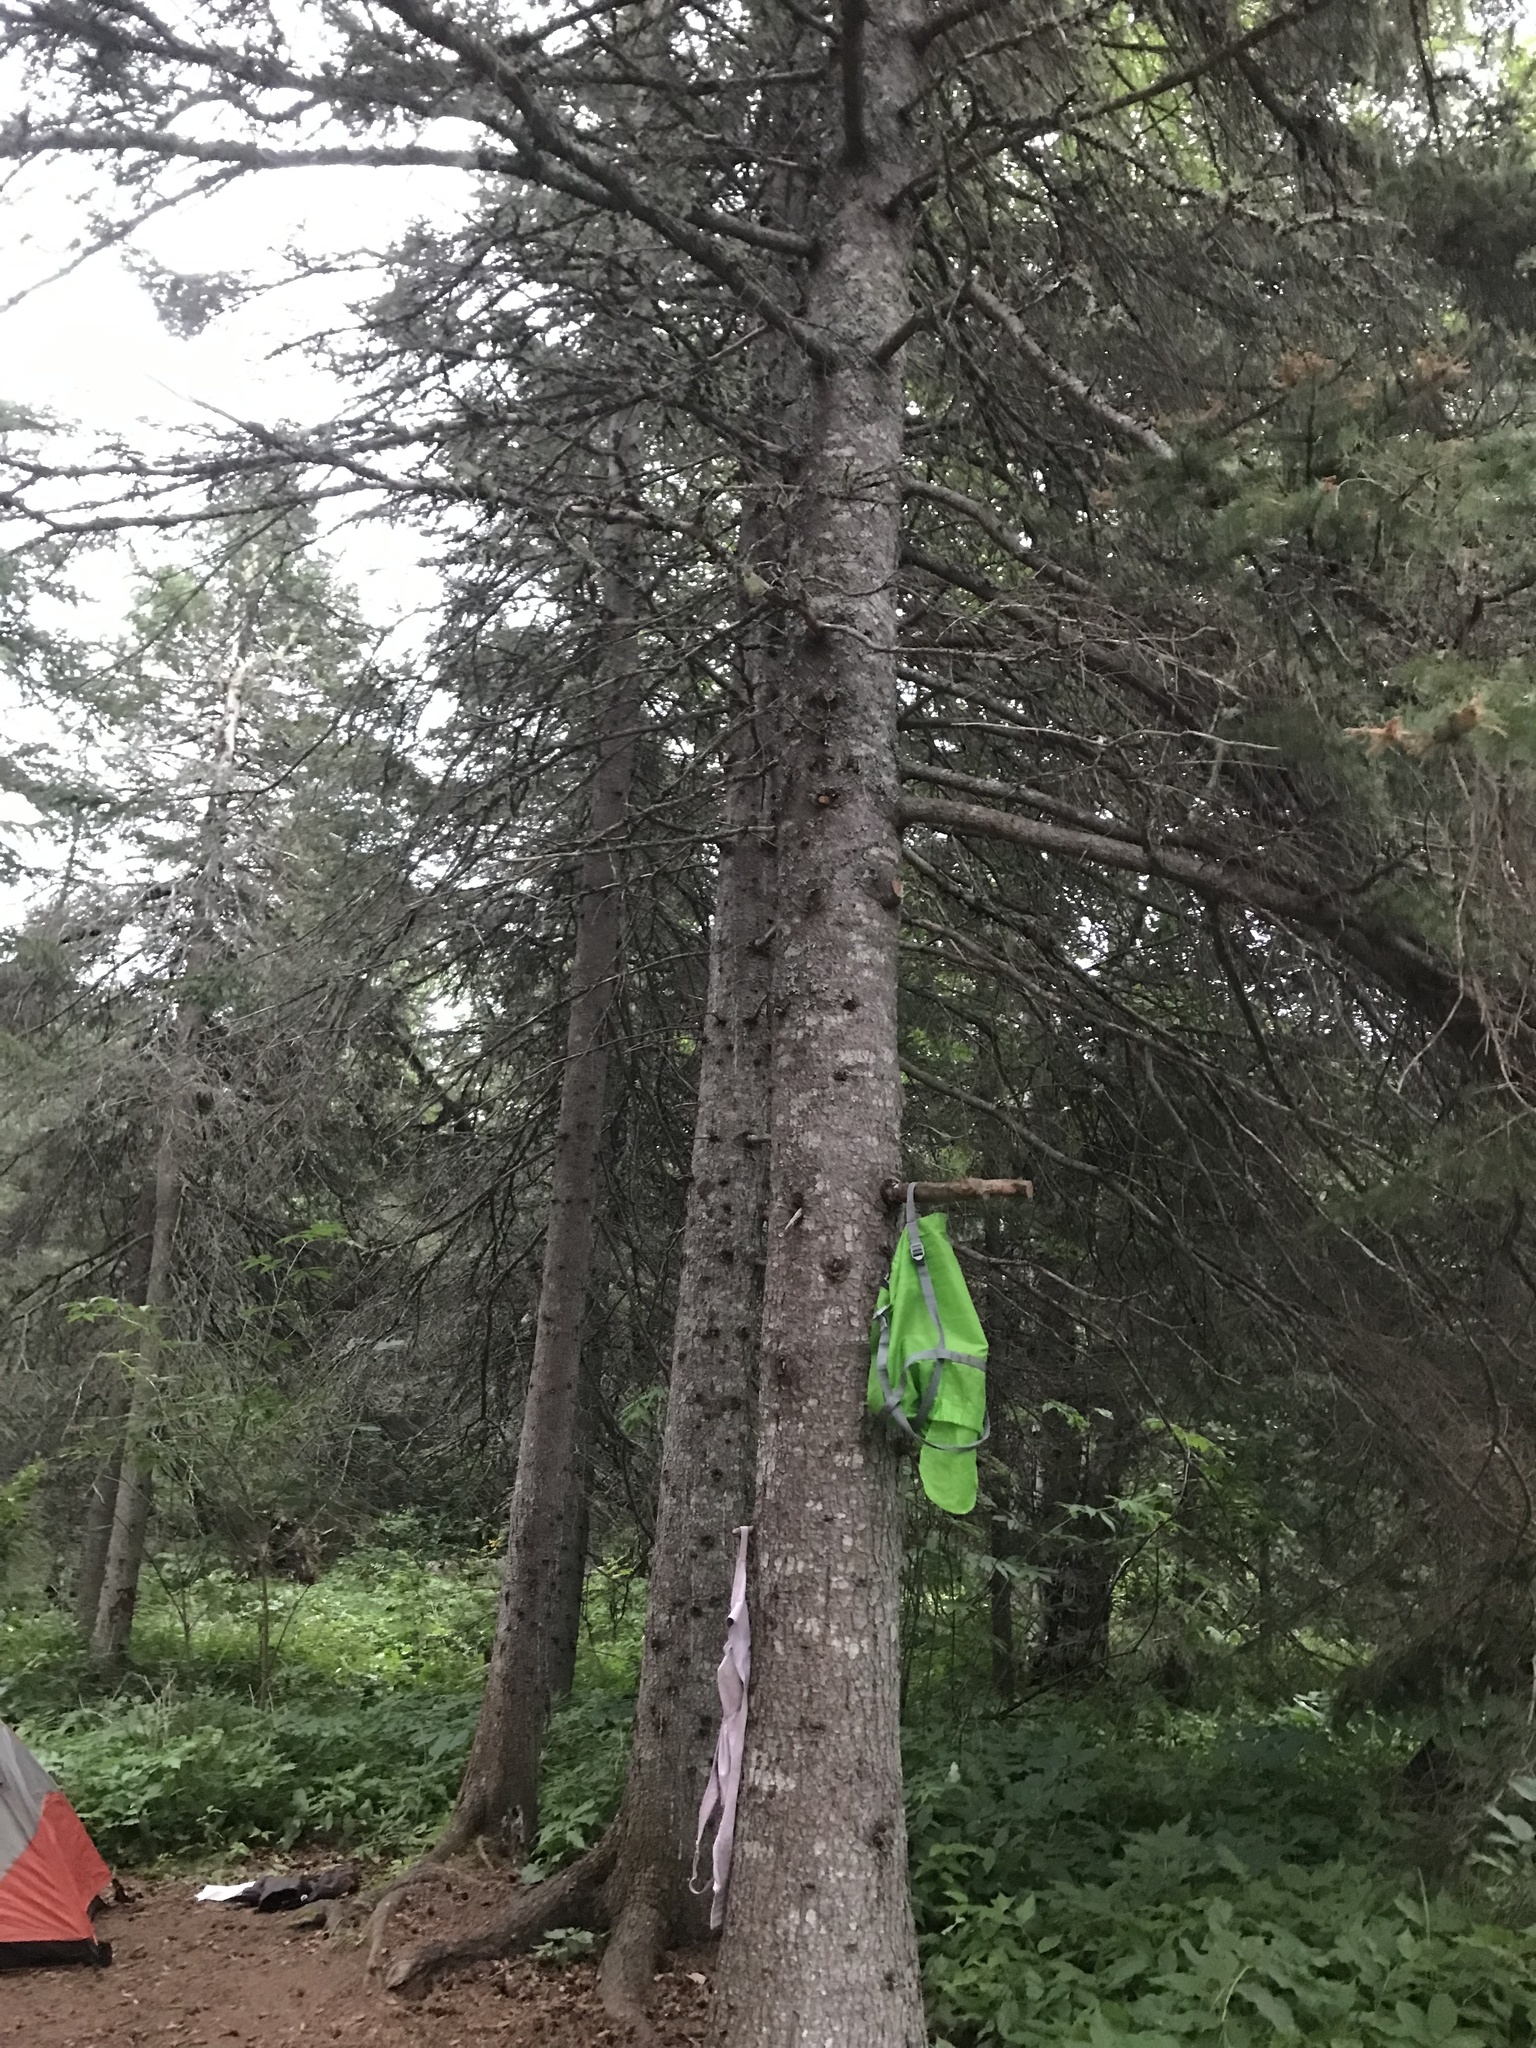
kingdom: Plantae
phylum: Tracheophyta
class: Pinopsida
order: Pinales
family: Pinaceae
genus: Abies
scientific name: Abies balsamea
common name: Balsam fir
